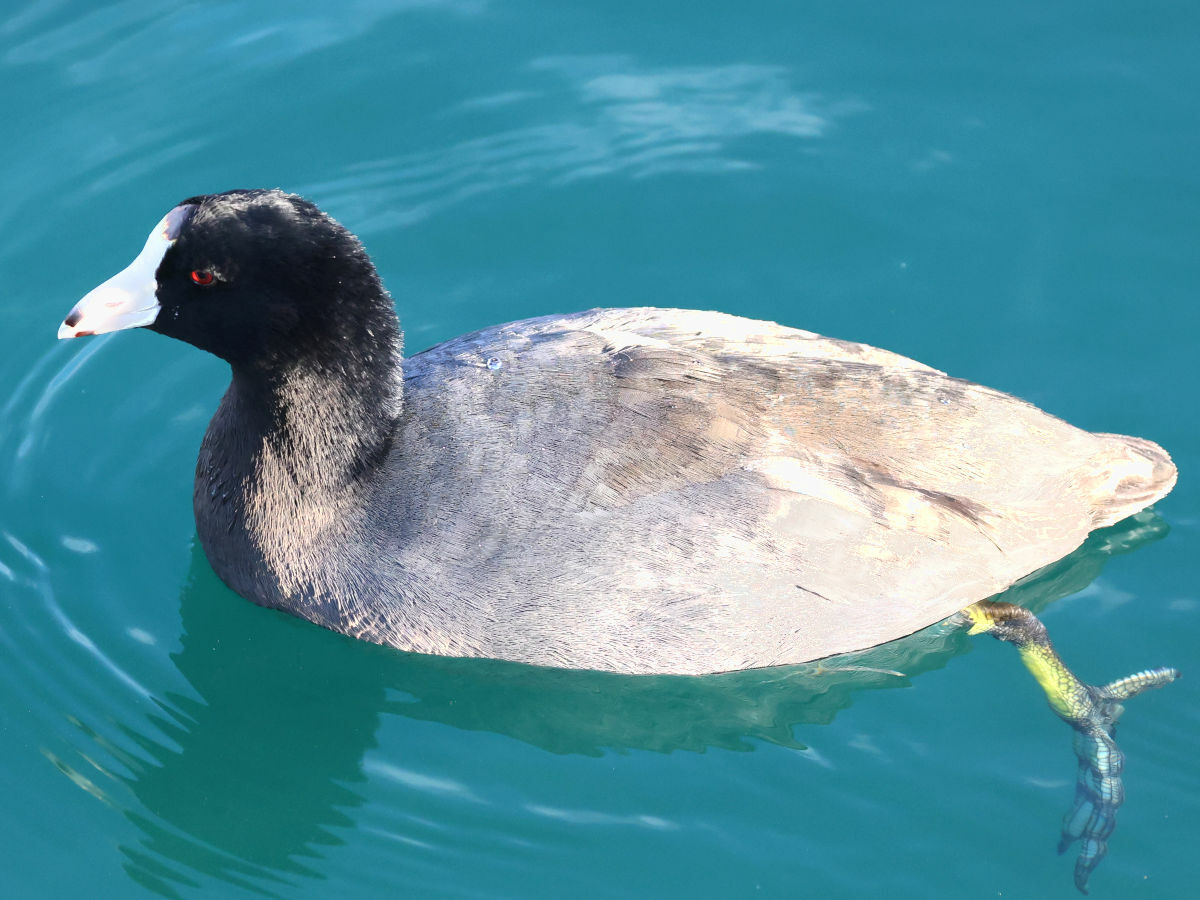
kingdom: Animalia
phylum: Chordata
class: Aves
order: Gruiformes
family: Rallidae
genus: Fulica
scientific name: Fulica americana
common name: American coot
